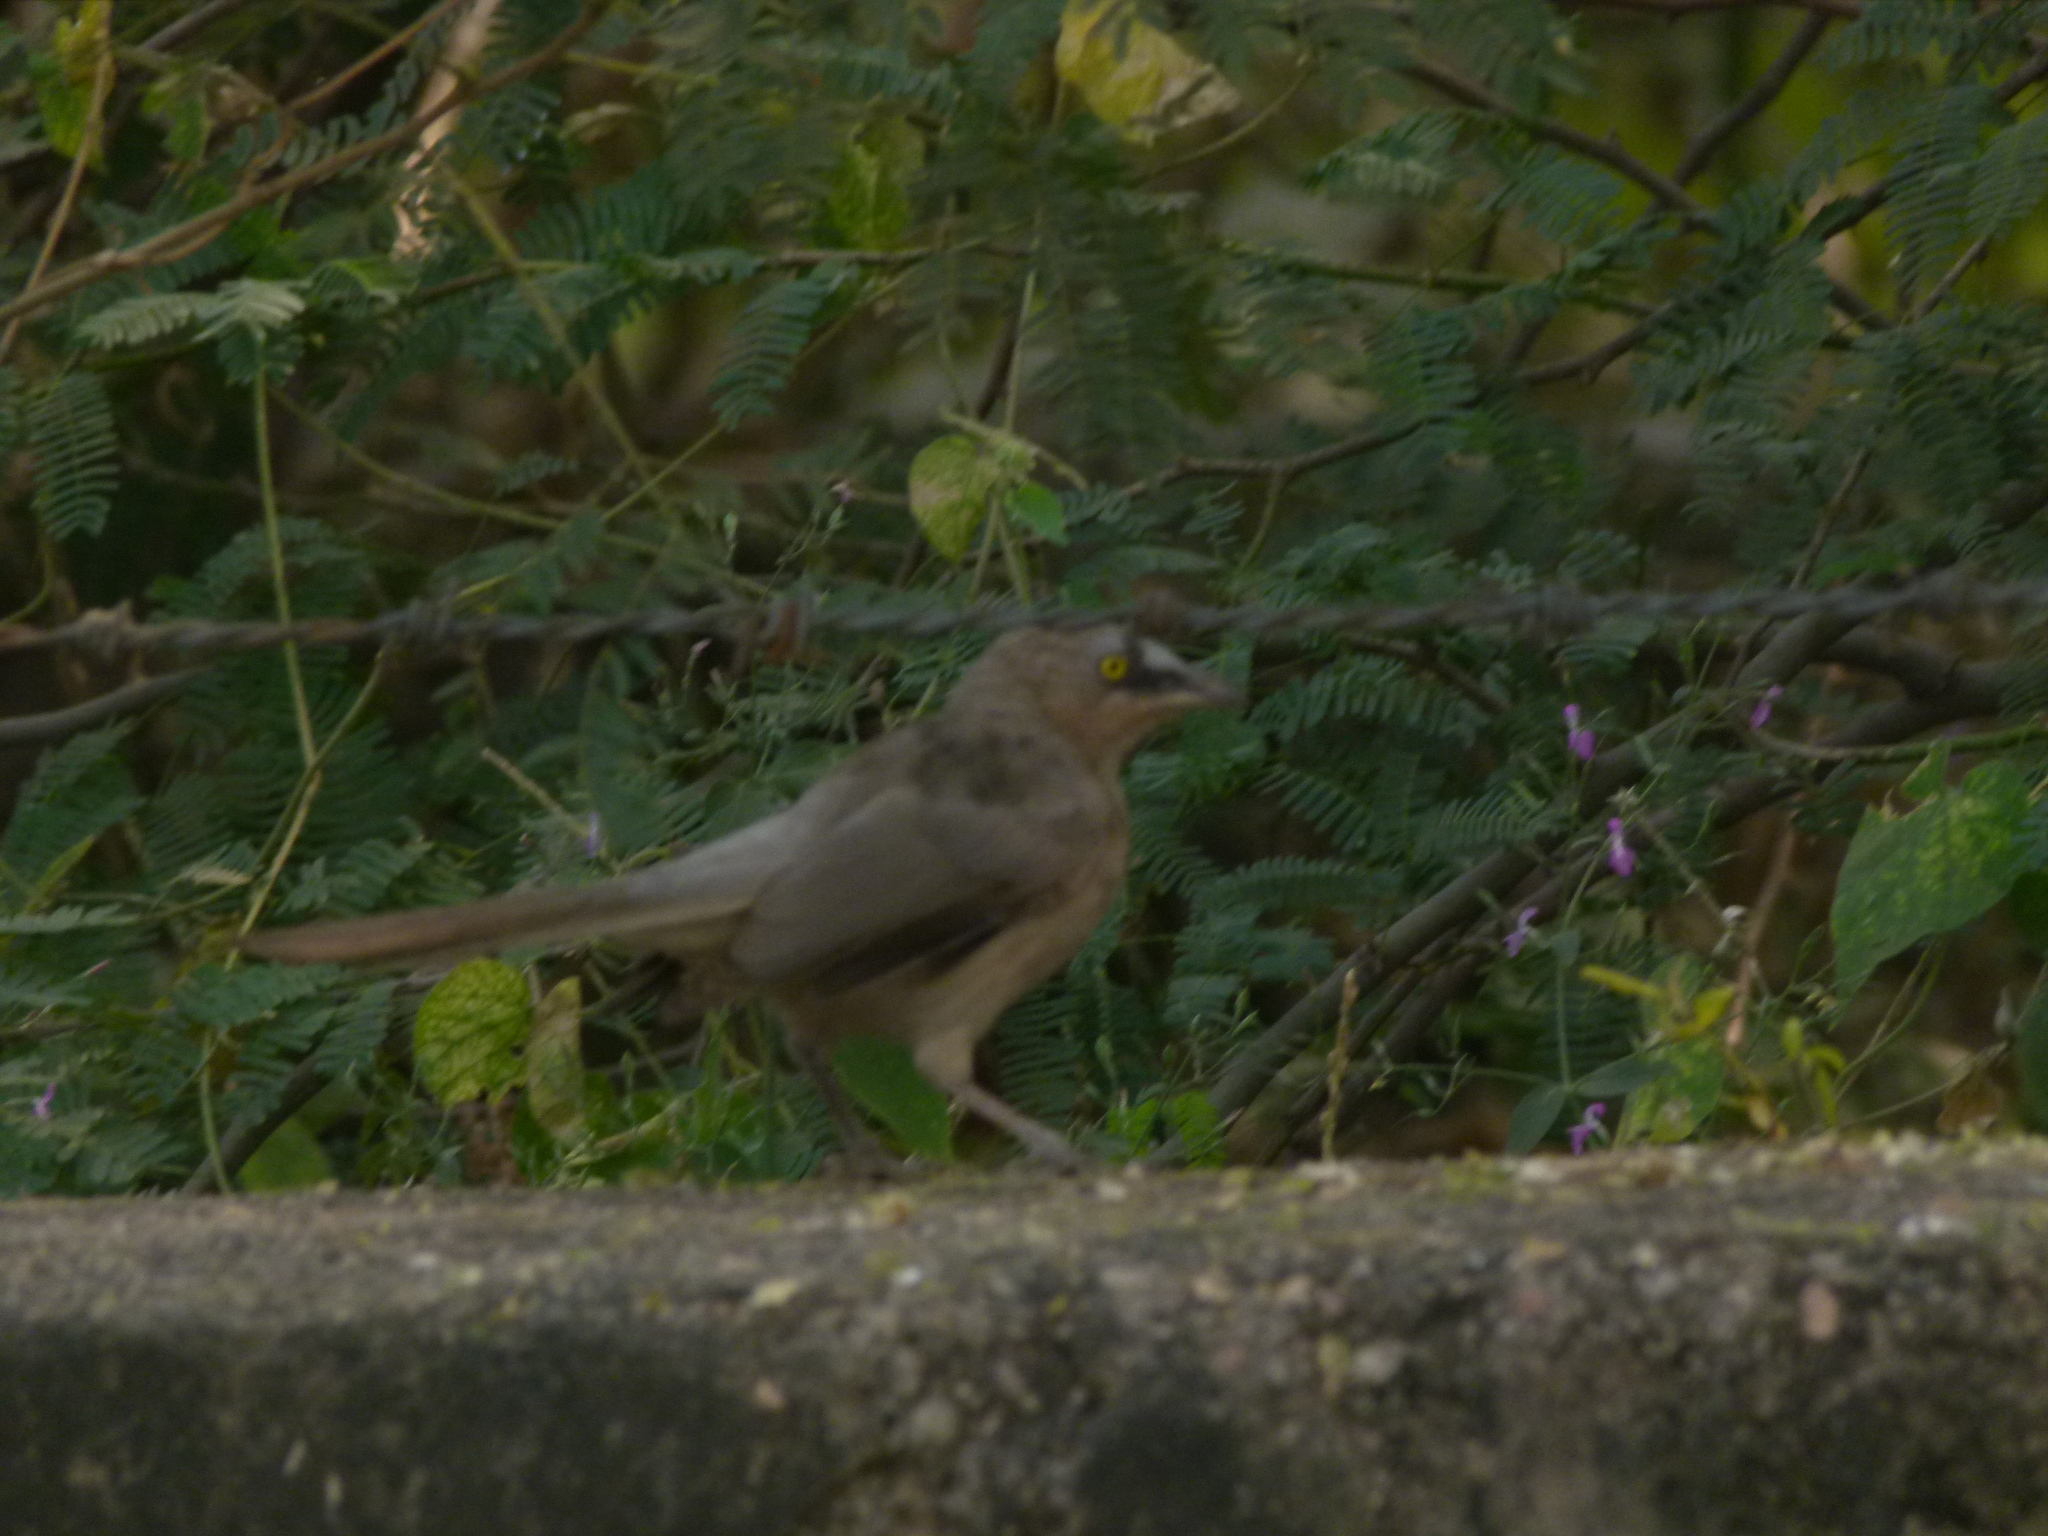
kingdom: Animalia
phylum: Chordata
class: Aves
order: Passeriformes
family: Leiothrichidae
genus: Turdoides
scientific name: Turdoides malcolmi
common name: Large grey babbler
